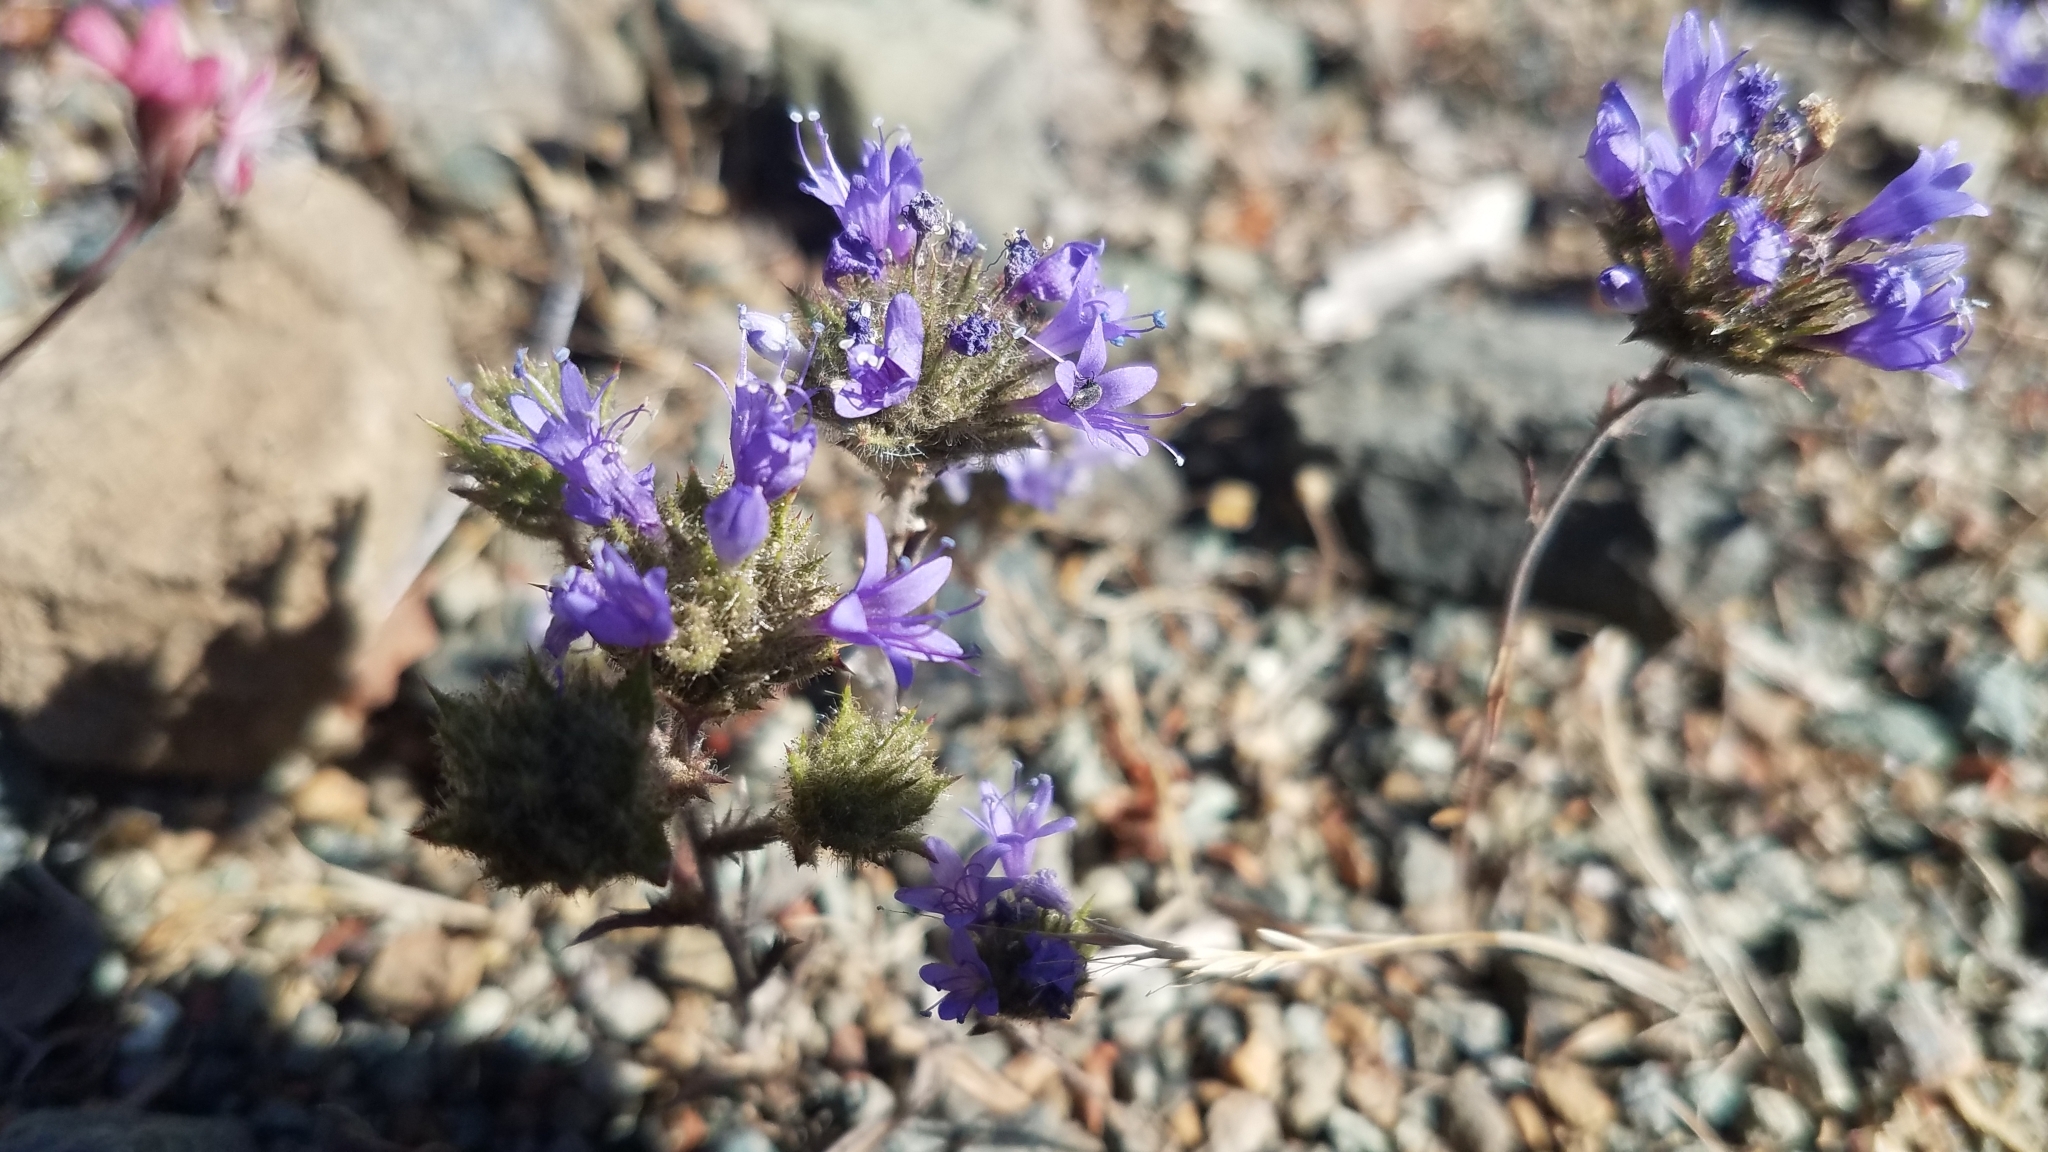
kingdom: Plantae
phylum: Tracheophyta
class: Magnoliopsida
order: Ericales
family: Polemoniaceae
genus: Navarretia
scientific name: Navarretia heterodoxa
